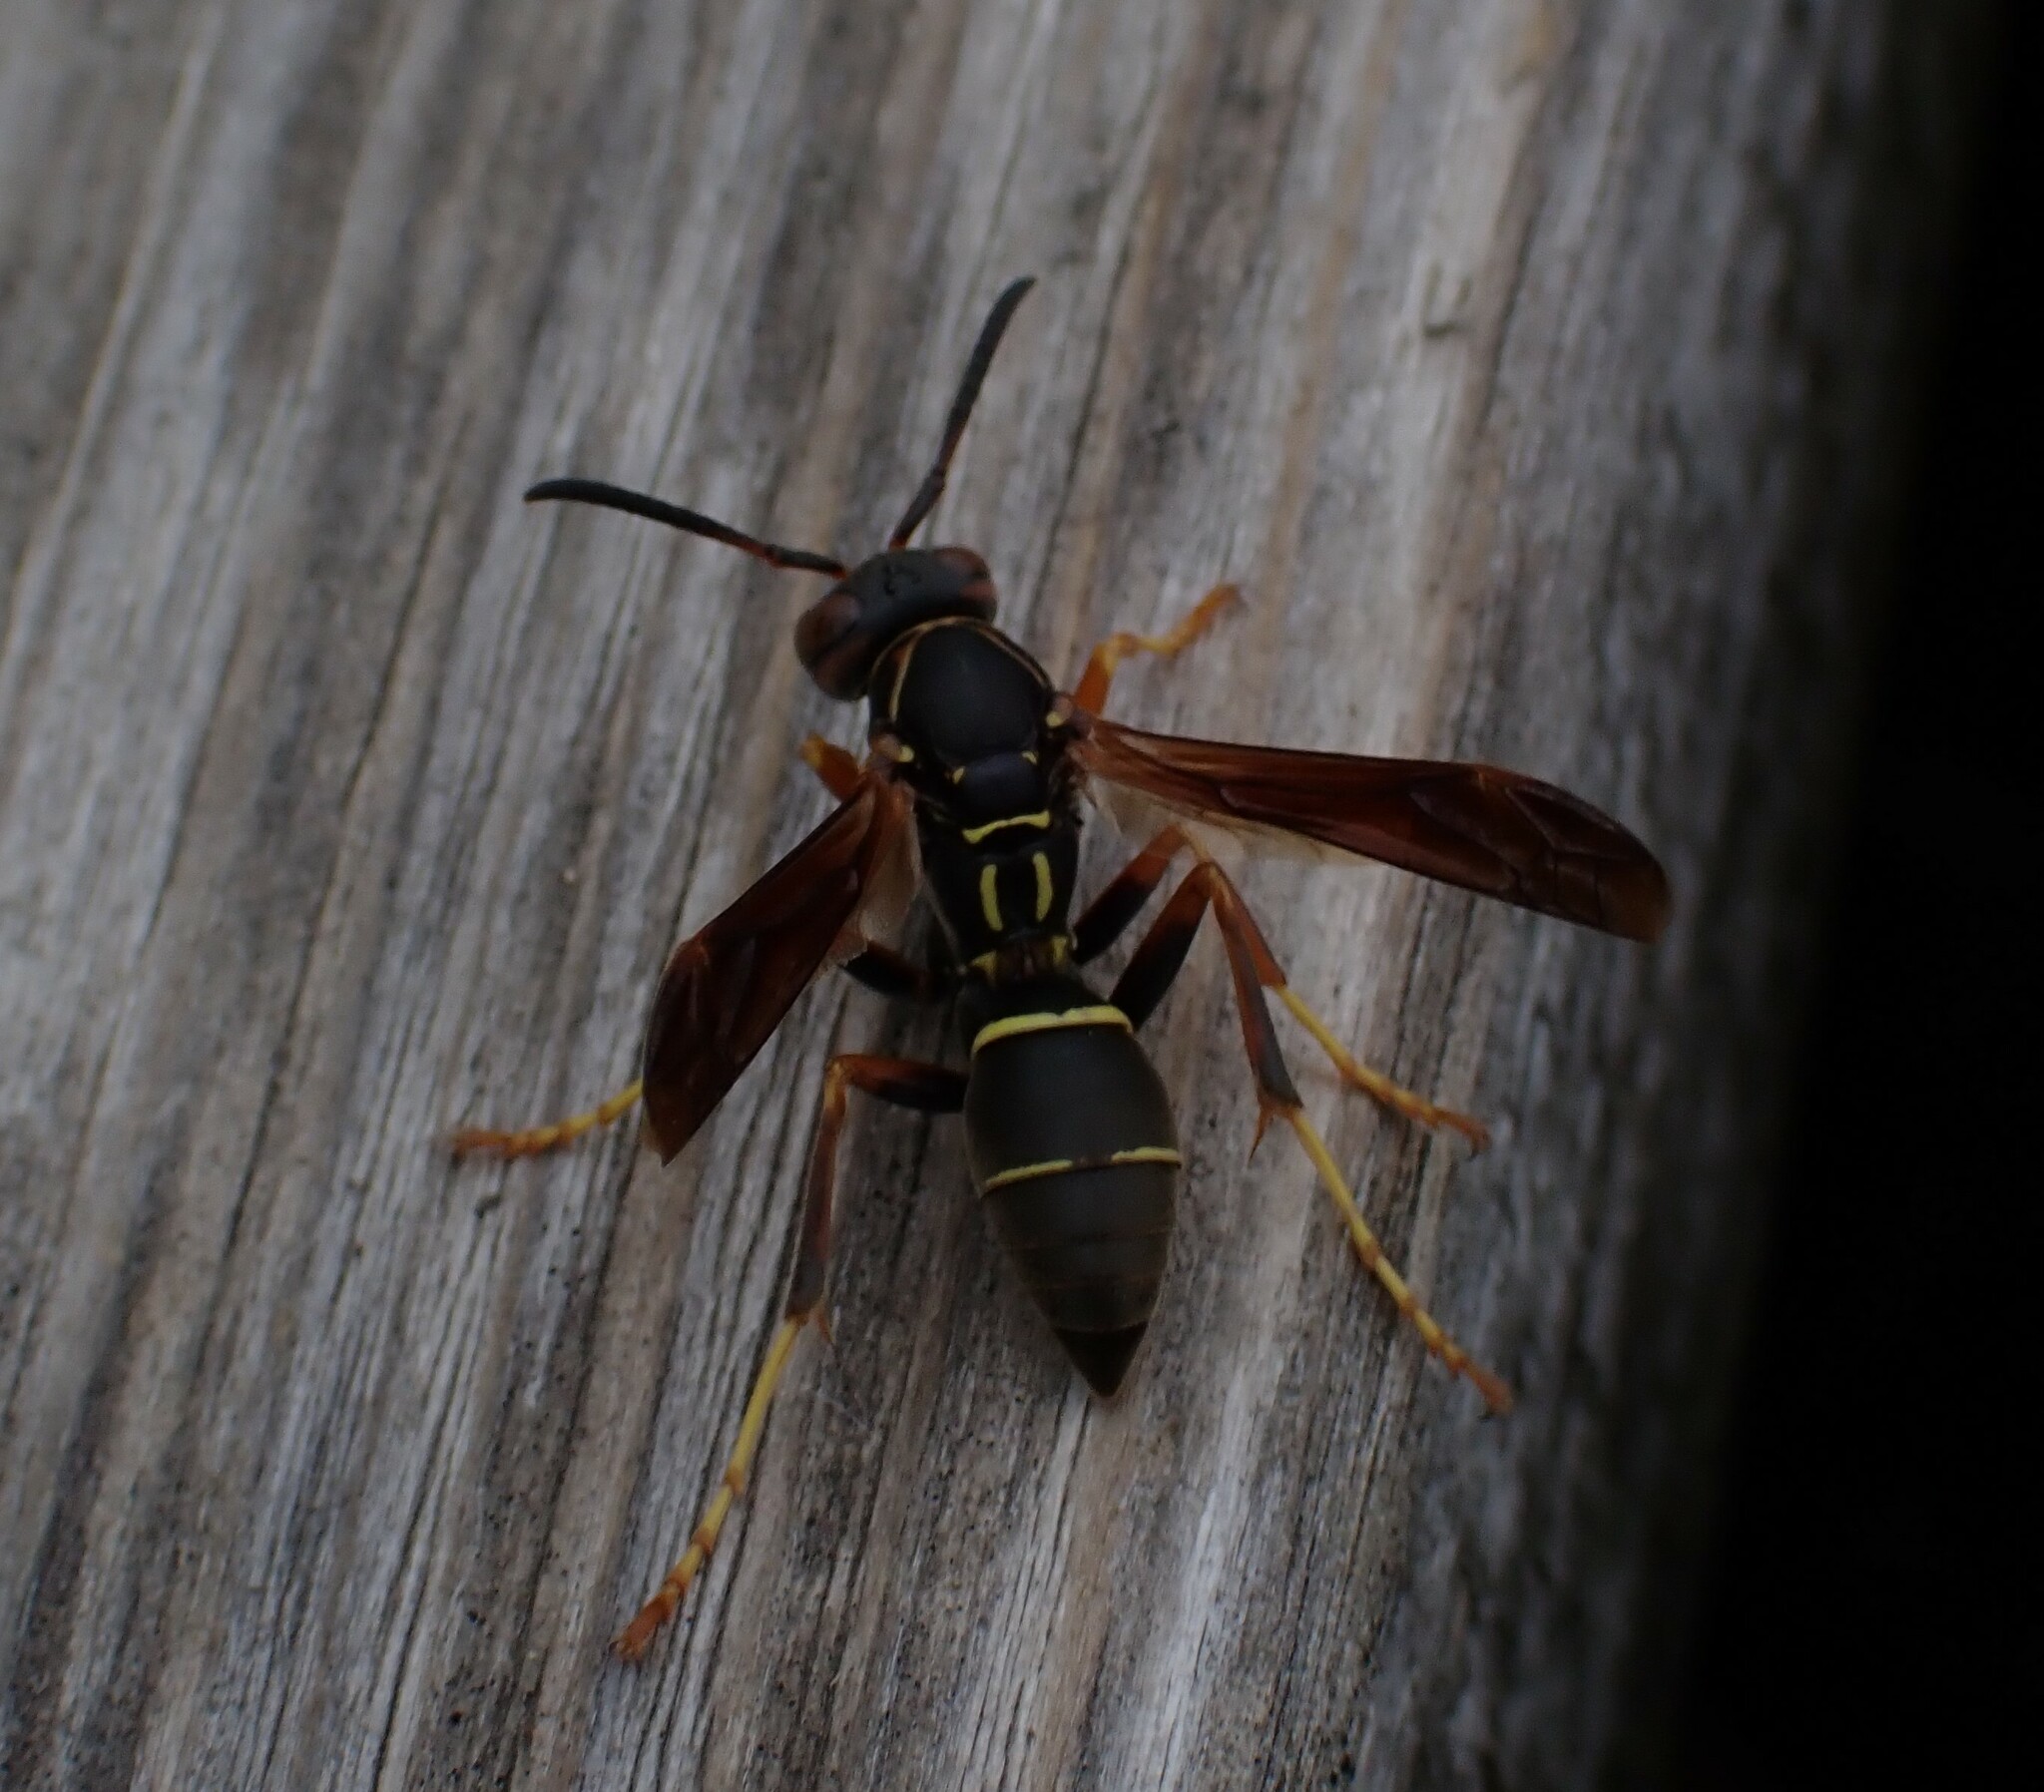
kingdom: Animalia
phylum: Arthropoda
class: Insecta
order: Hymenoptera
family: Eumenidae
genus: Polistes
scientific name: Polistes fuscatus
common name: Dark paper wasp
